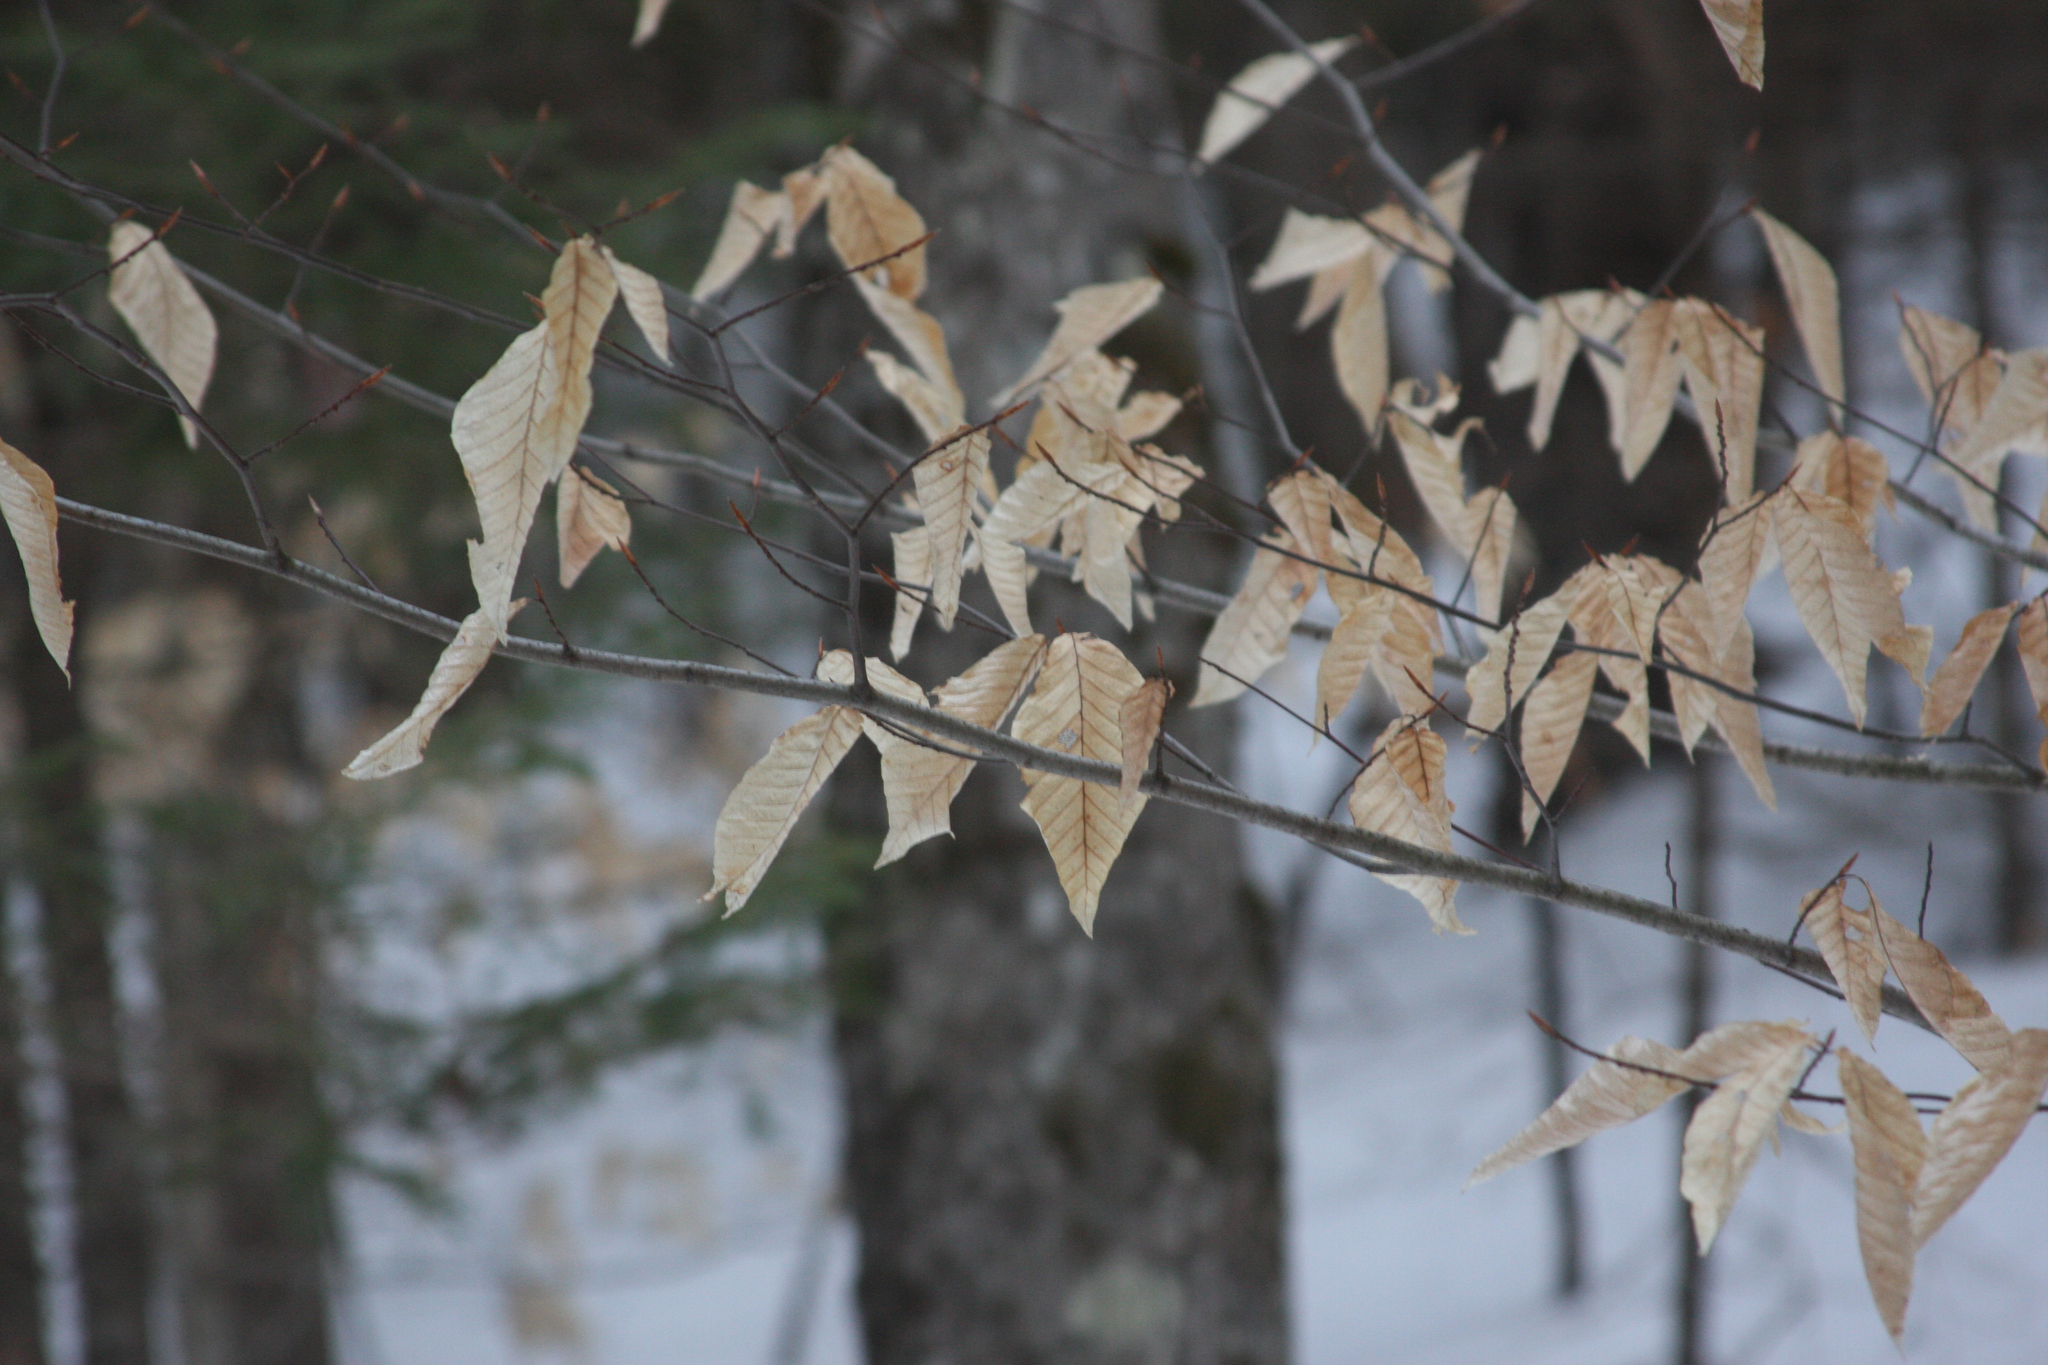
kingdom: Plantae
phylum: Tracheophyta
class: Magnoliopsida
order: Fagales
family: Fagaceae
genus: Fagus
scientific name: Fagus grandifolia
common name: American beech
